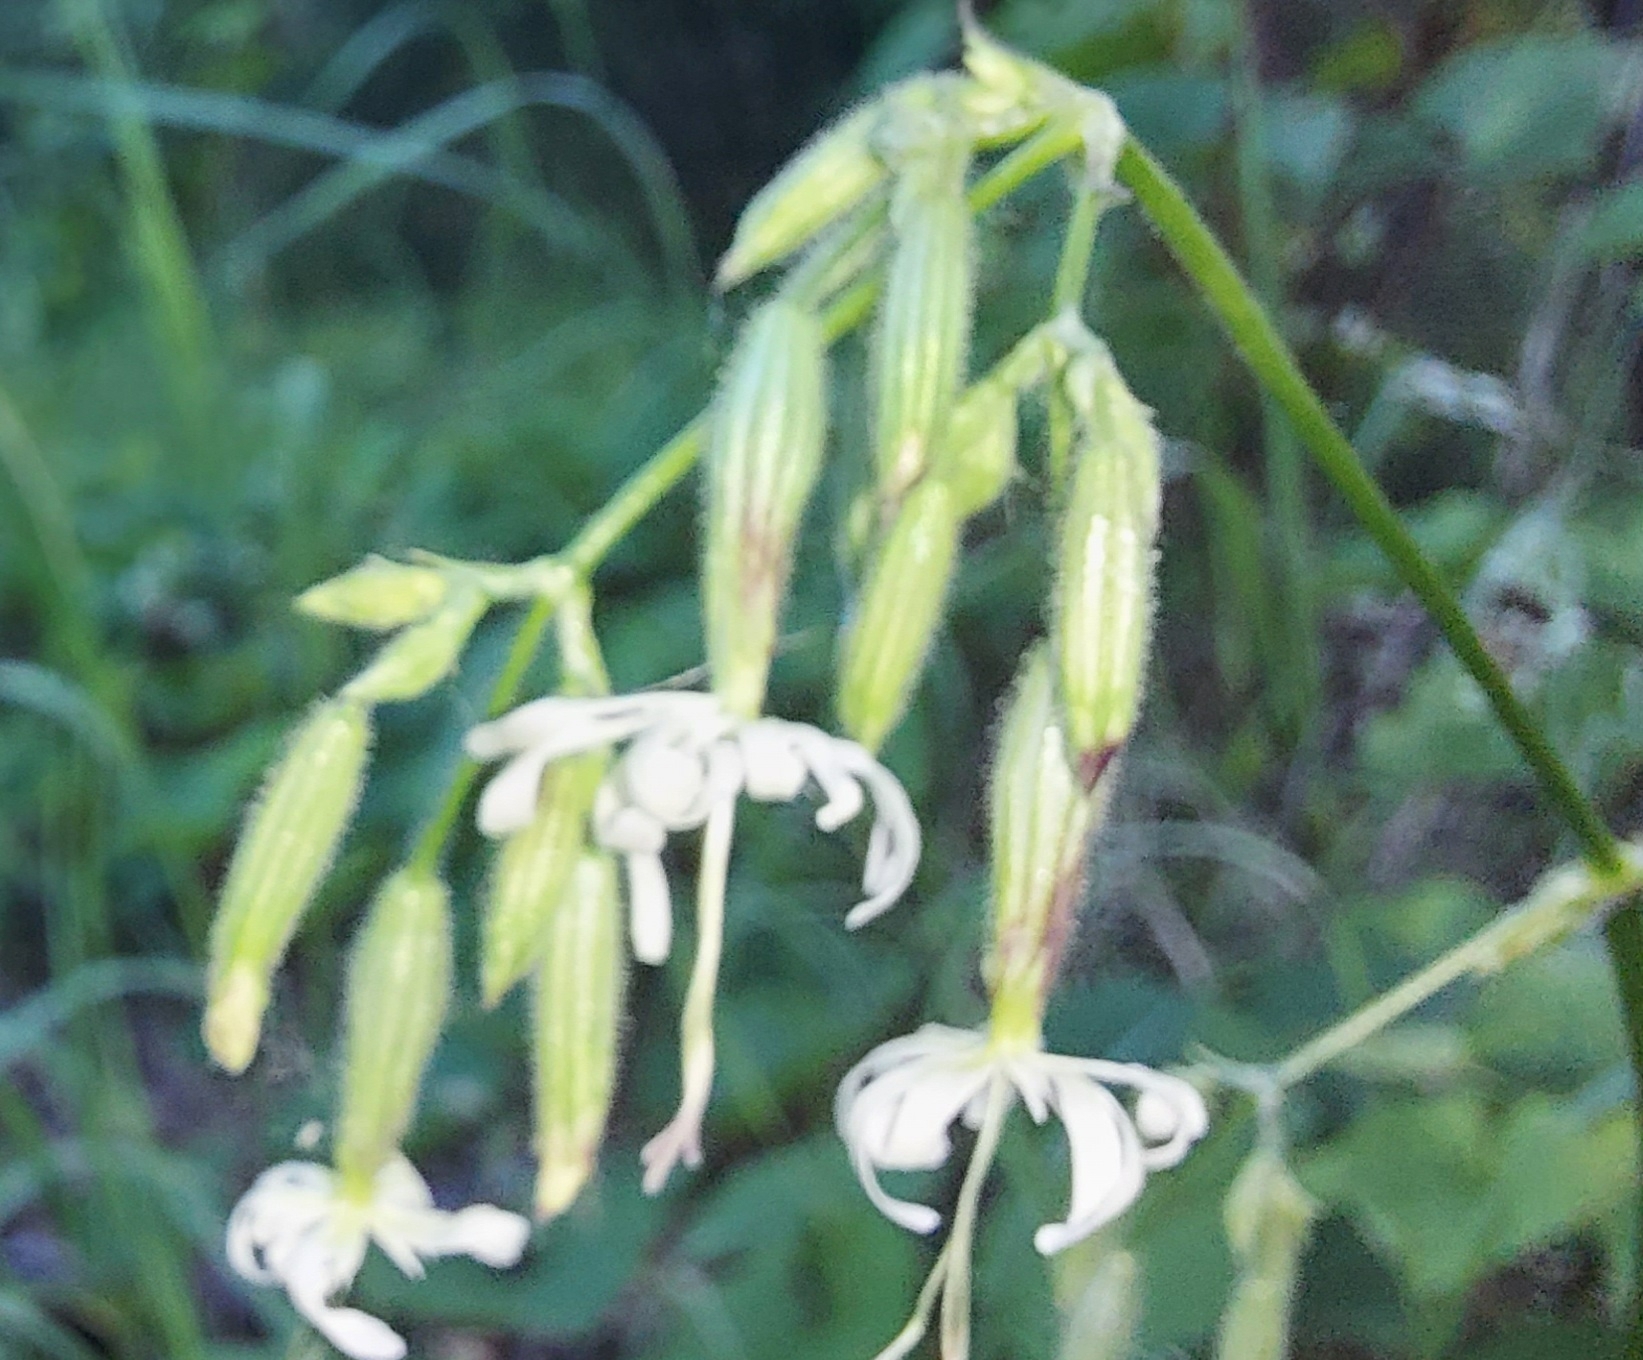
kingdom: Plantae
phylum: Tracheophyta
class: Magnoliopsida
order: Caryophyllales
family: Caryophyllaceae
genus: Silene
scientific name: Silene nutans
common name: Nottingham catchfly
